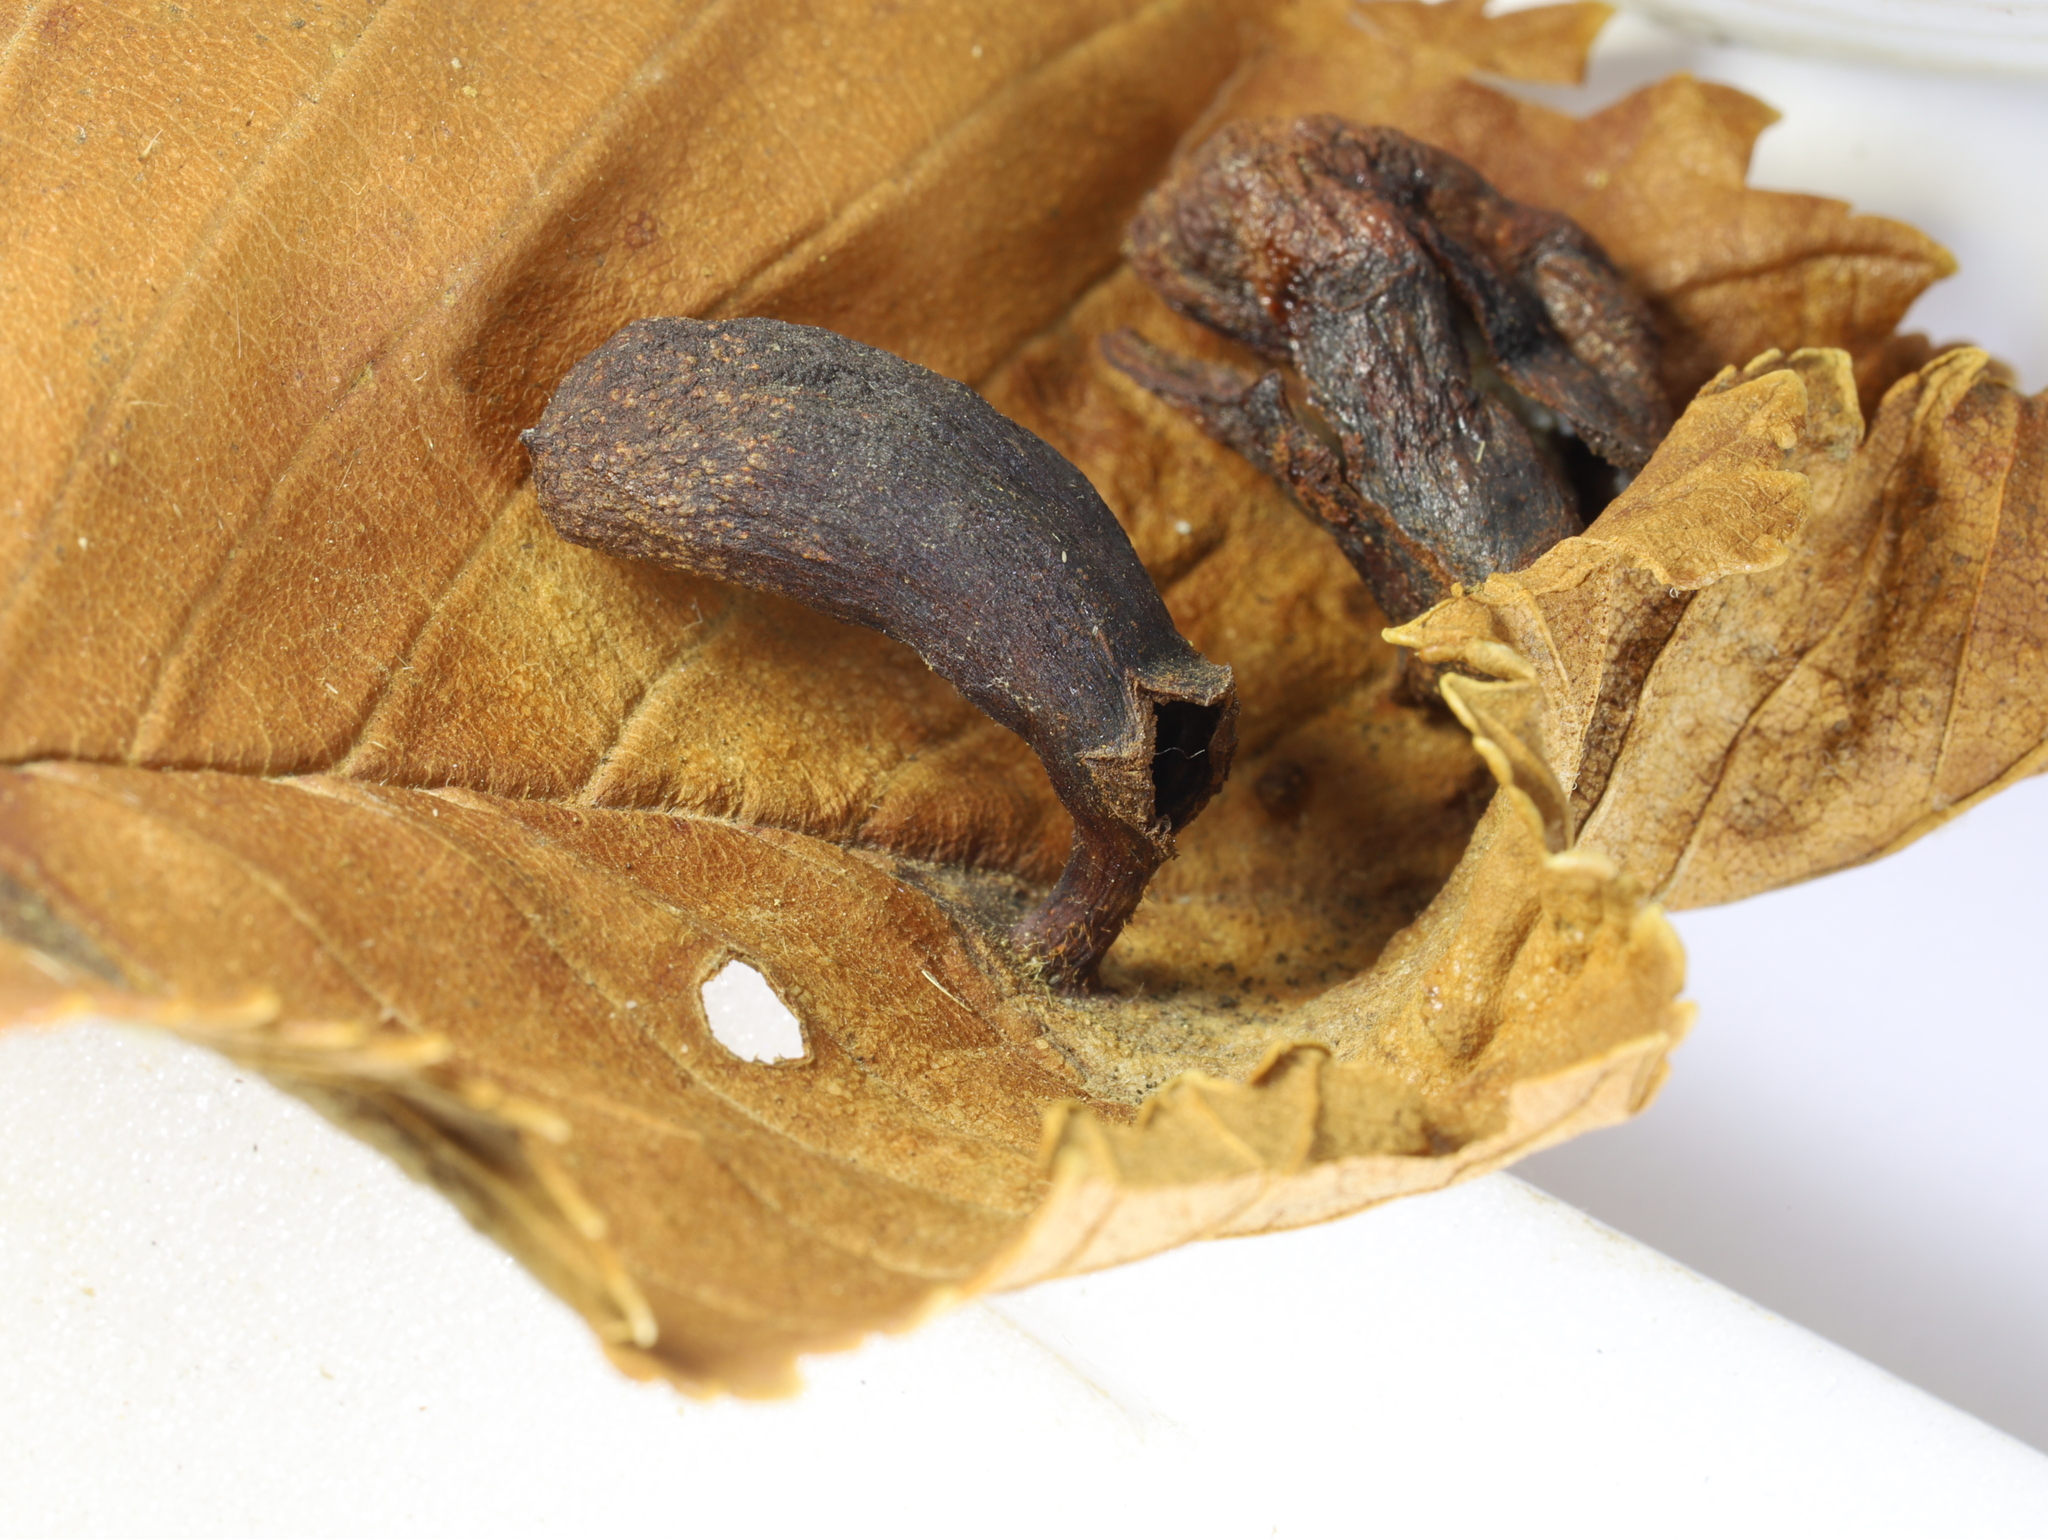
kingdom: Animalia
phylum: Arthropoda
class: Insecta
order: Hemiptera
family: Aphididae
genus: Tetraneura
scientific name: Tetraneura ulmi
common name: Aphid
